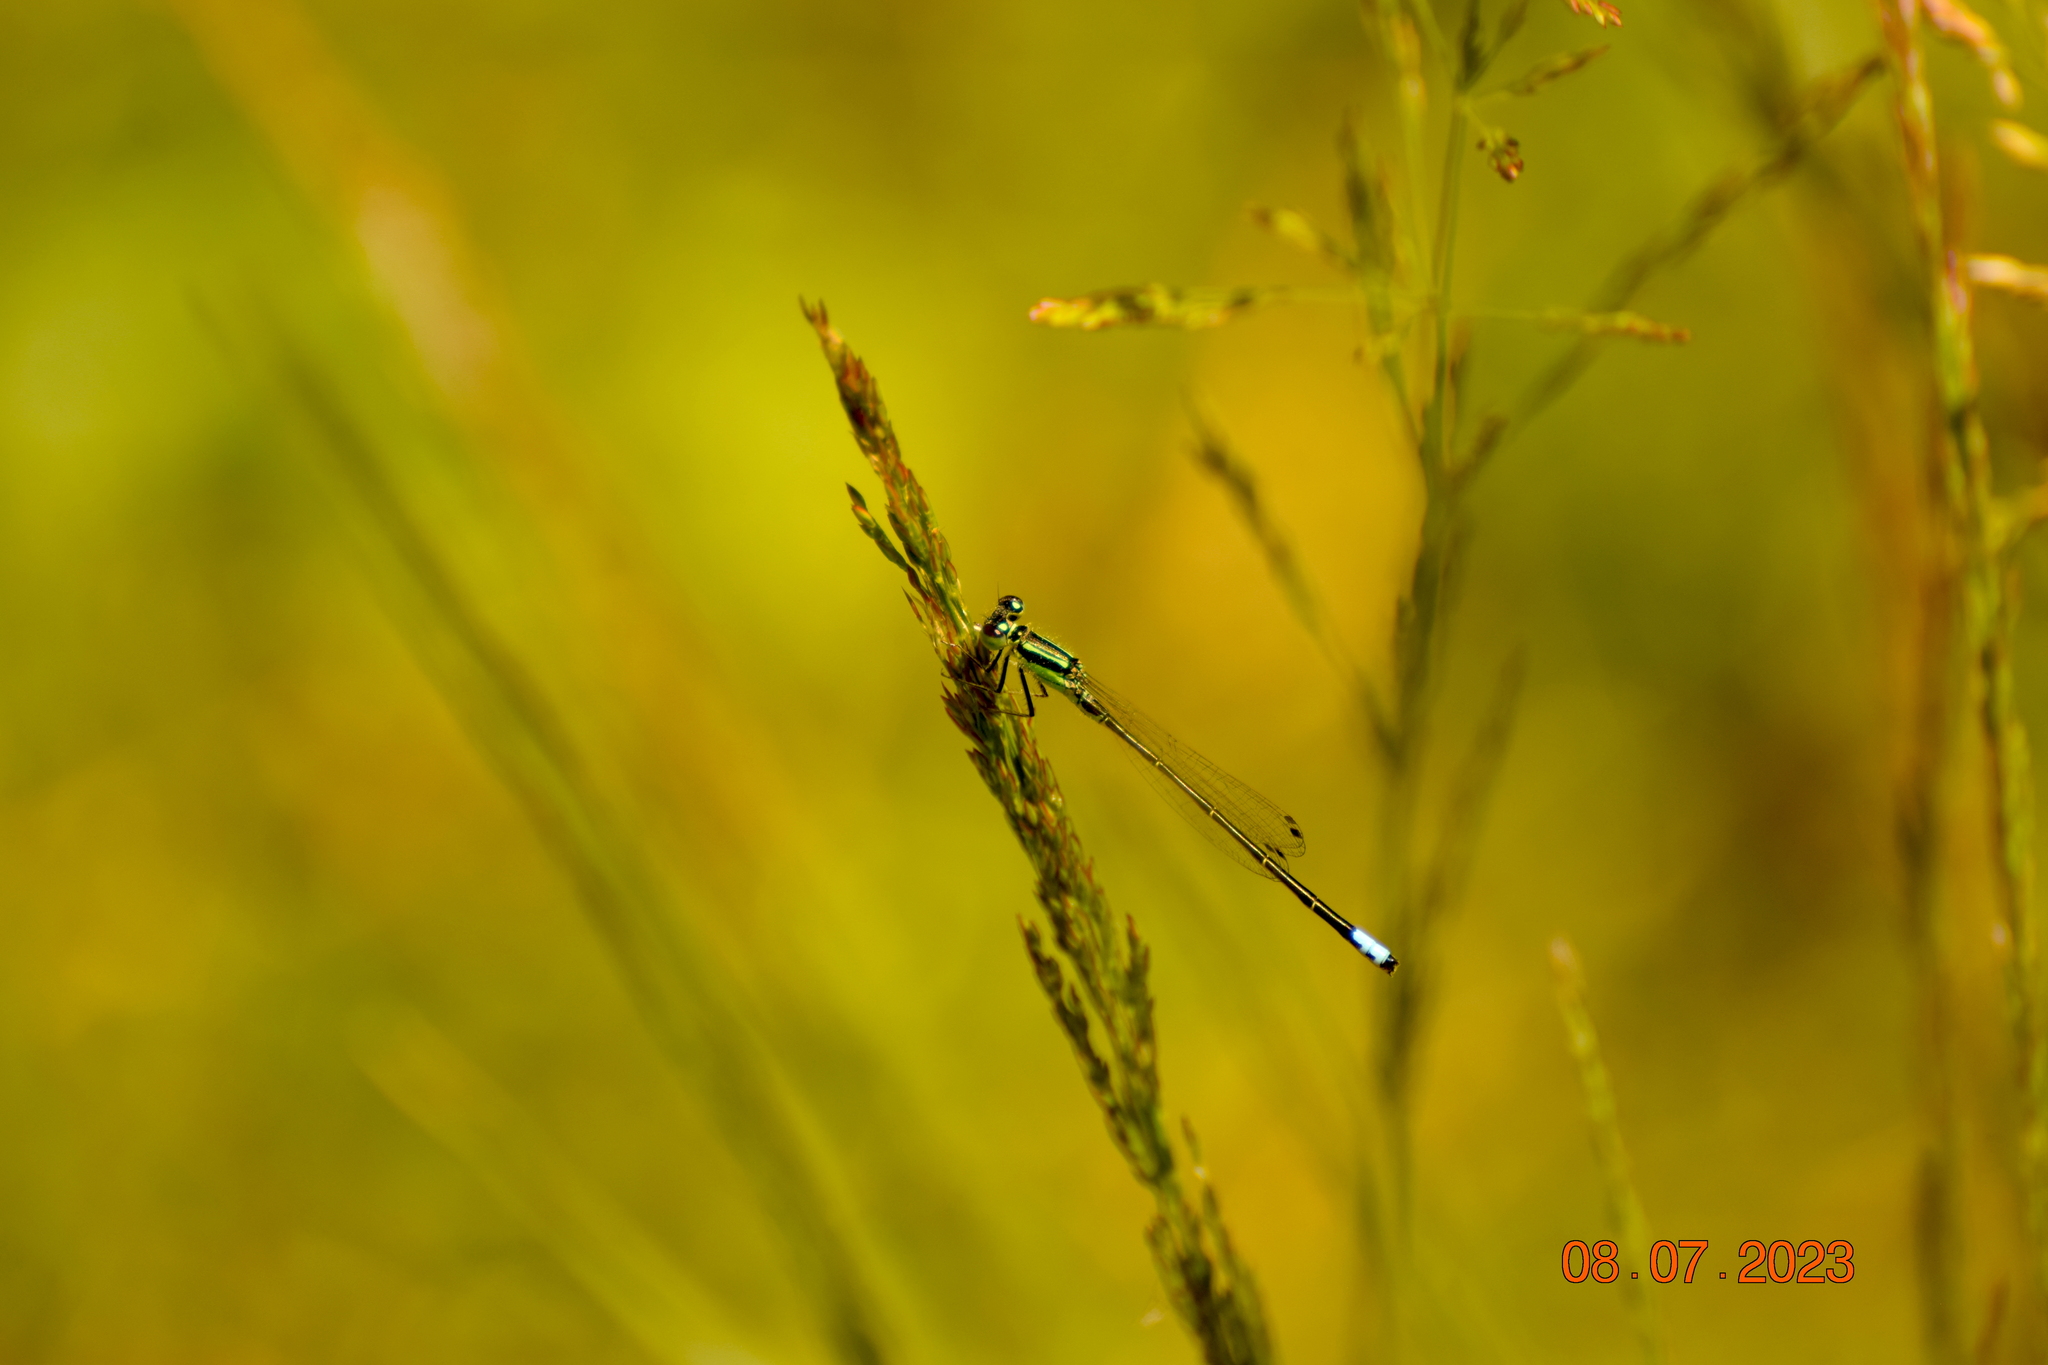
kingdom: Animalia
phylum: Arthropoda
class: Insecta
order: Odonata
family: Coenagrionidae
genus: Ischnura
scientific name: Ischnura verticalis
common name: Eastern forktail
